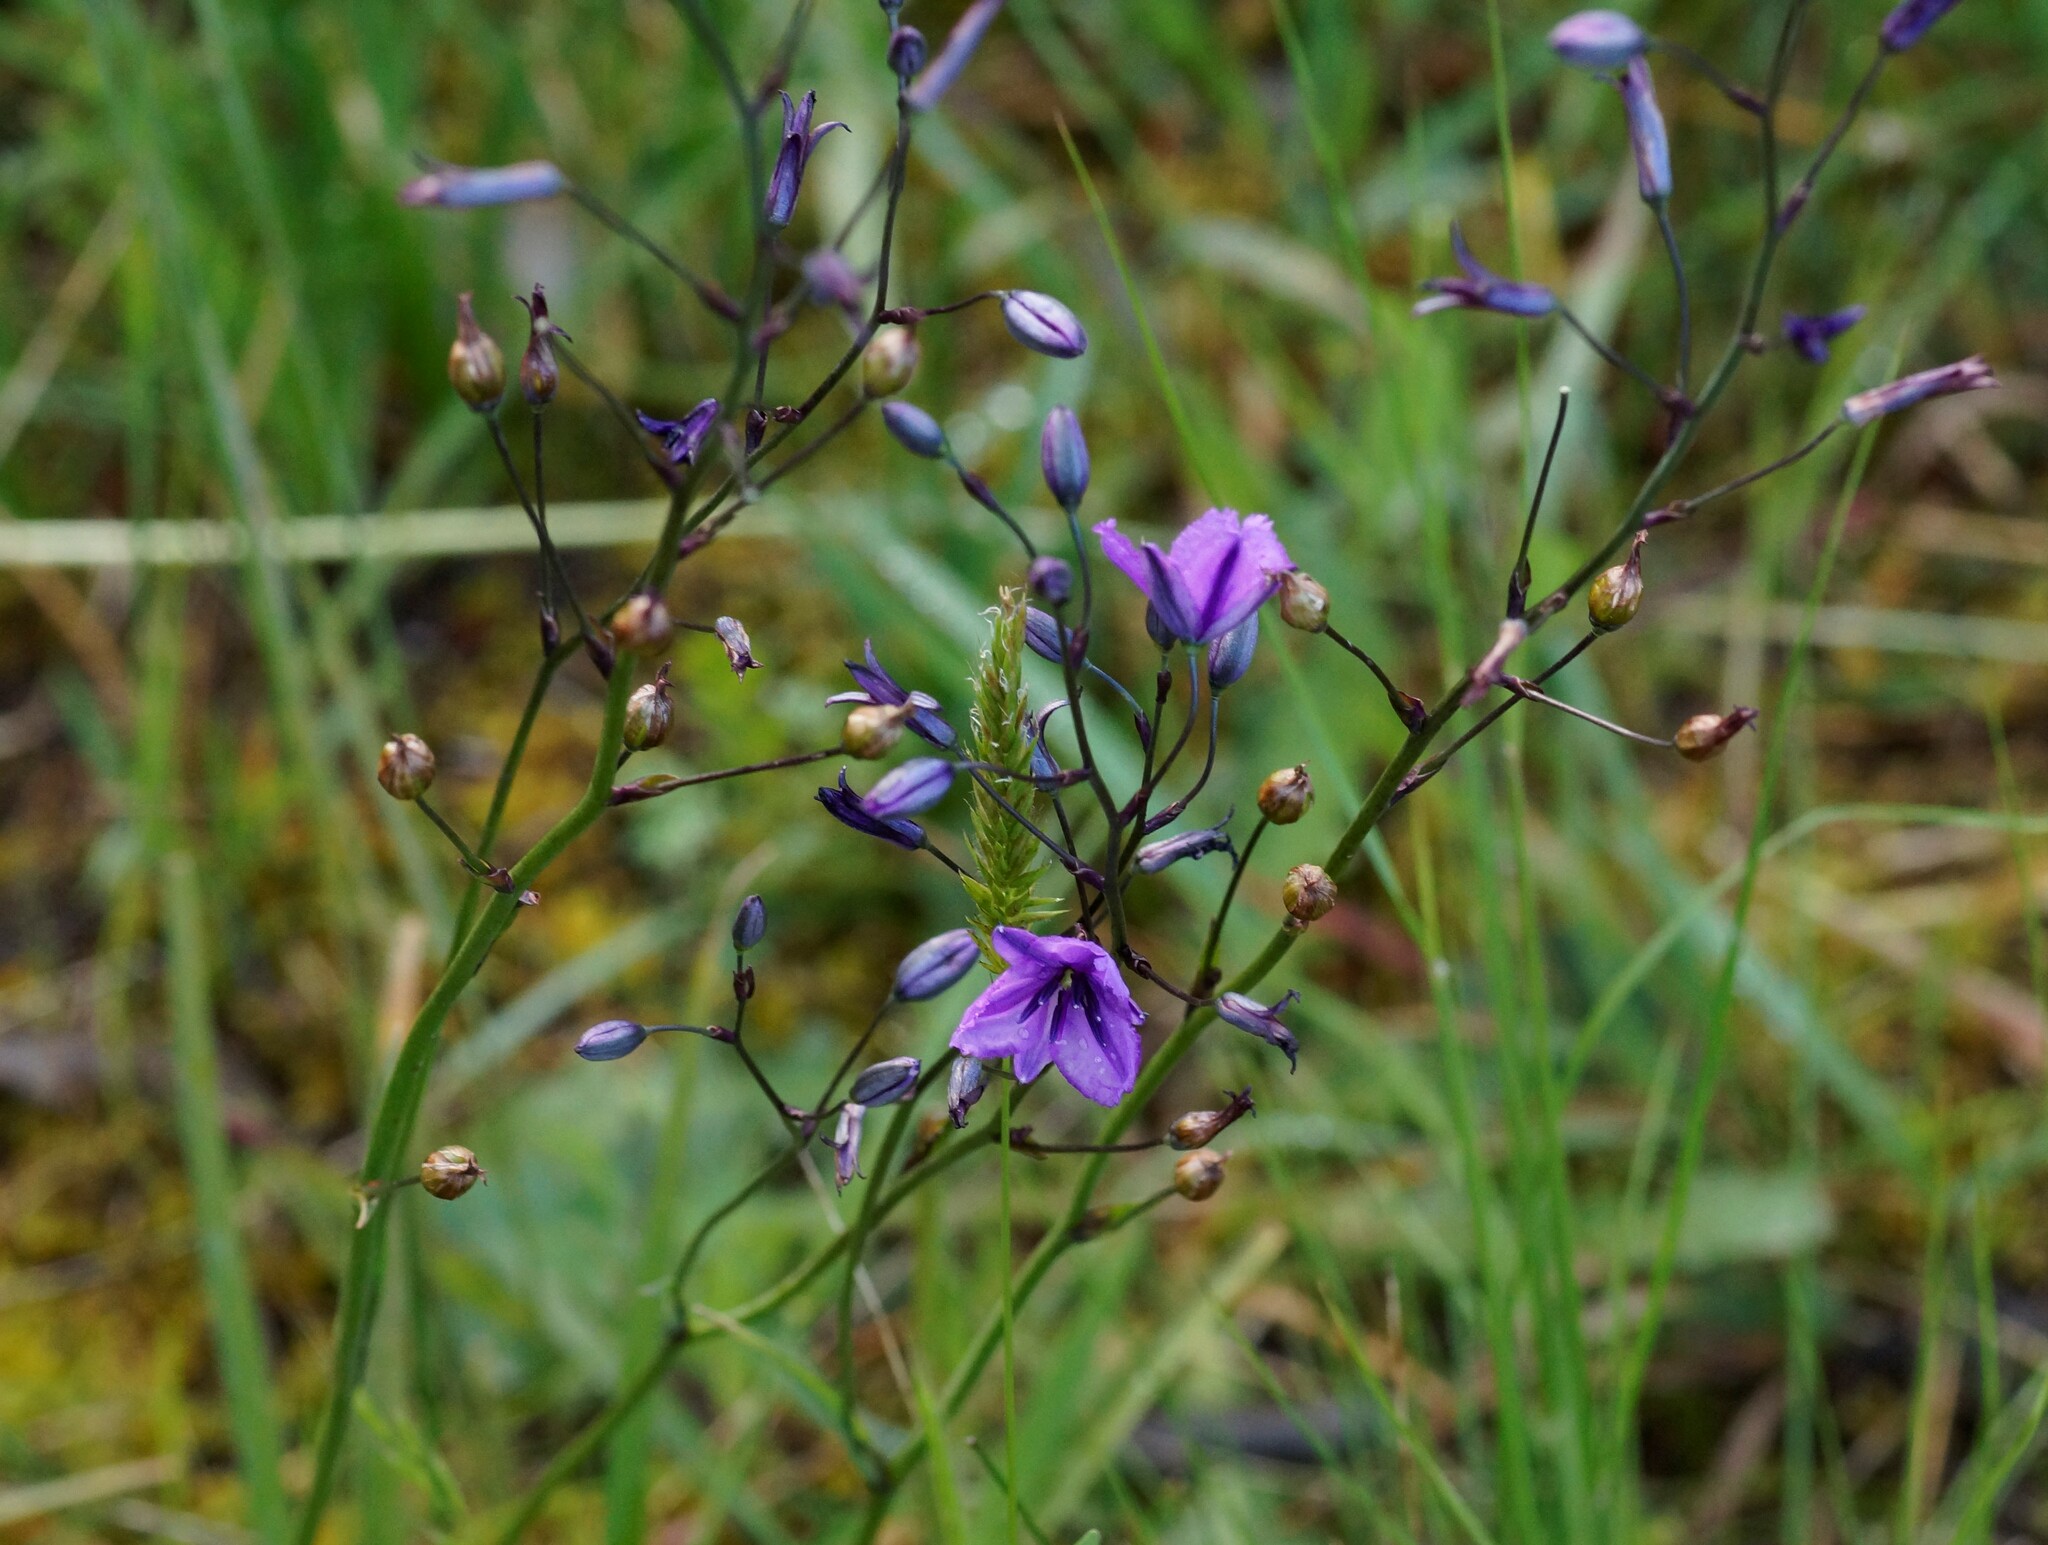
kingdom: Plantae
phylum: Tracheophyta
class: Liliopsida
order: Asparagales
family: Asparagaceae
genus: Arthropodium
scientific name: Arthropodium strictum
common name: Chocolate-lily
